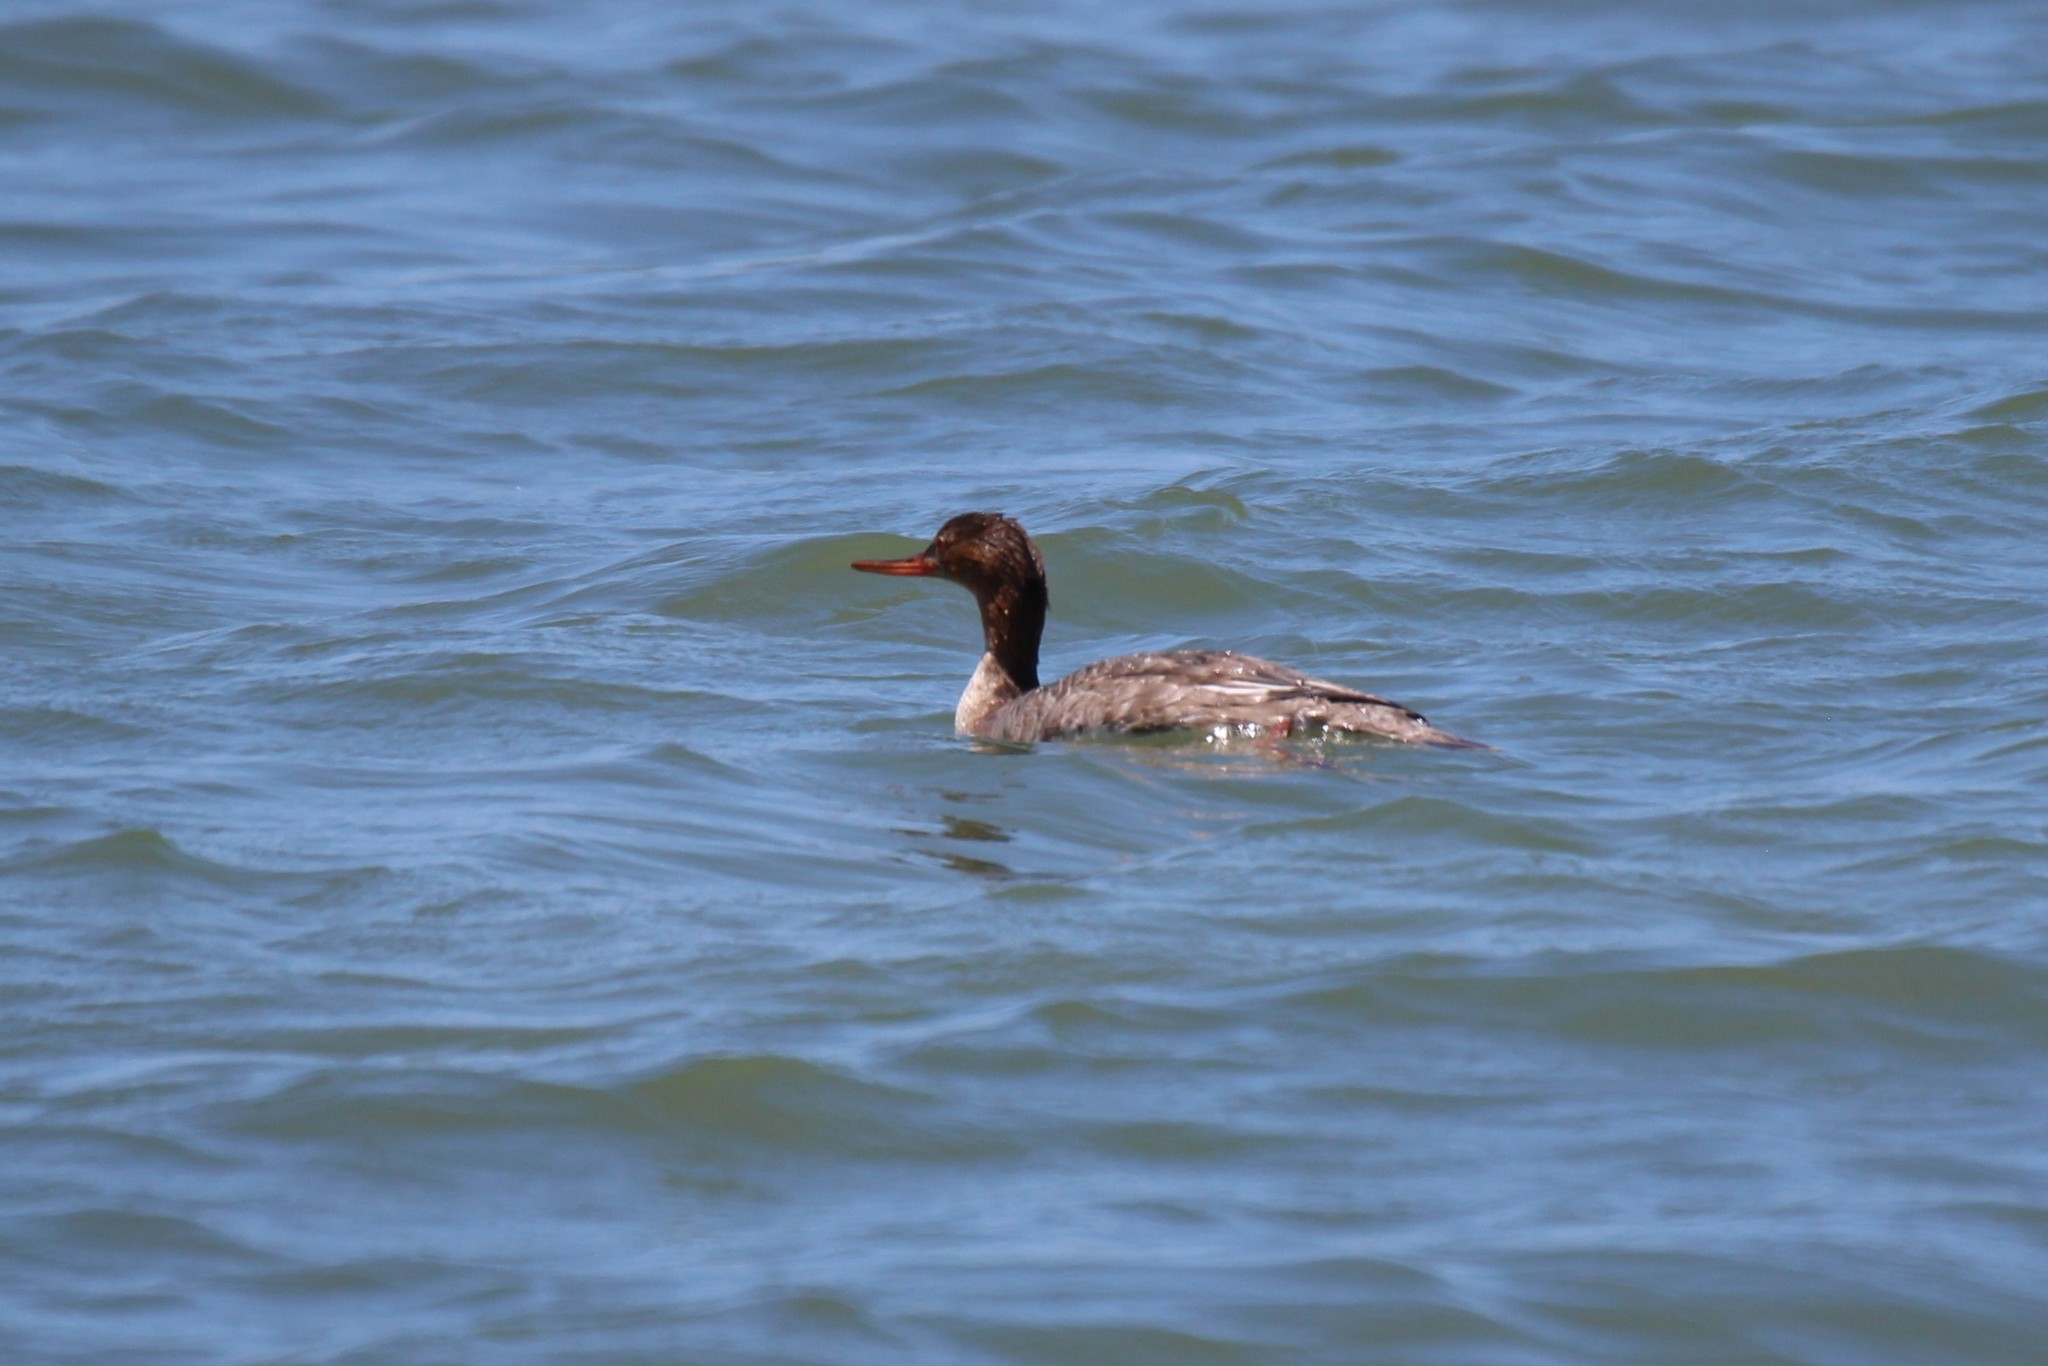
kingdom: Animalia
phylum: Chordata
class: Aves
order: Anseriformes
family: Anatidae
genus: Mergus
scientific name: Mergus serrator
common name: Red-breasted merganser
